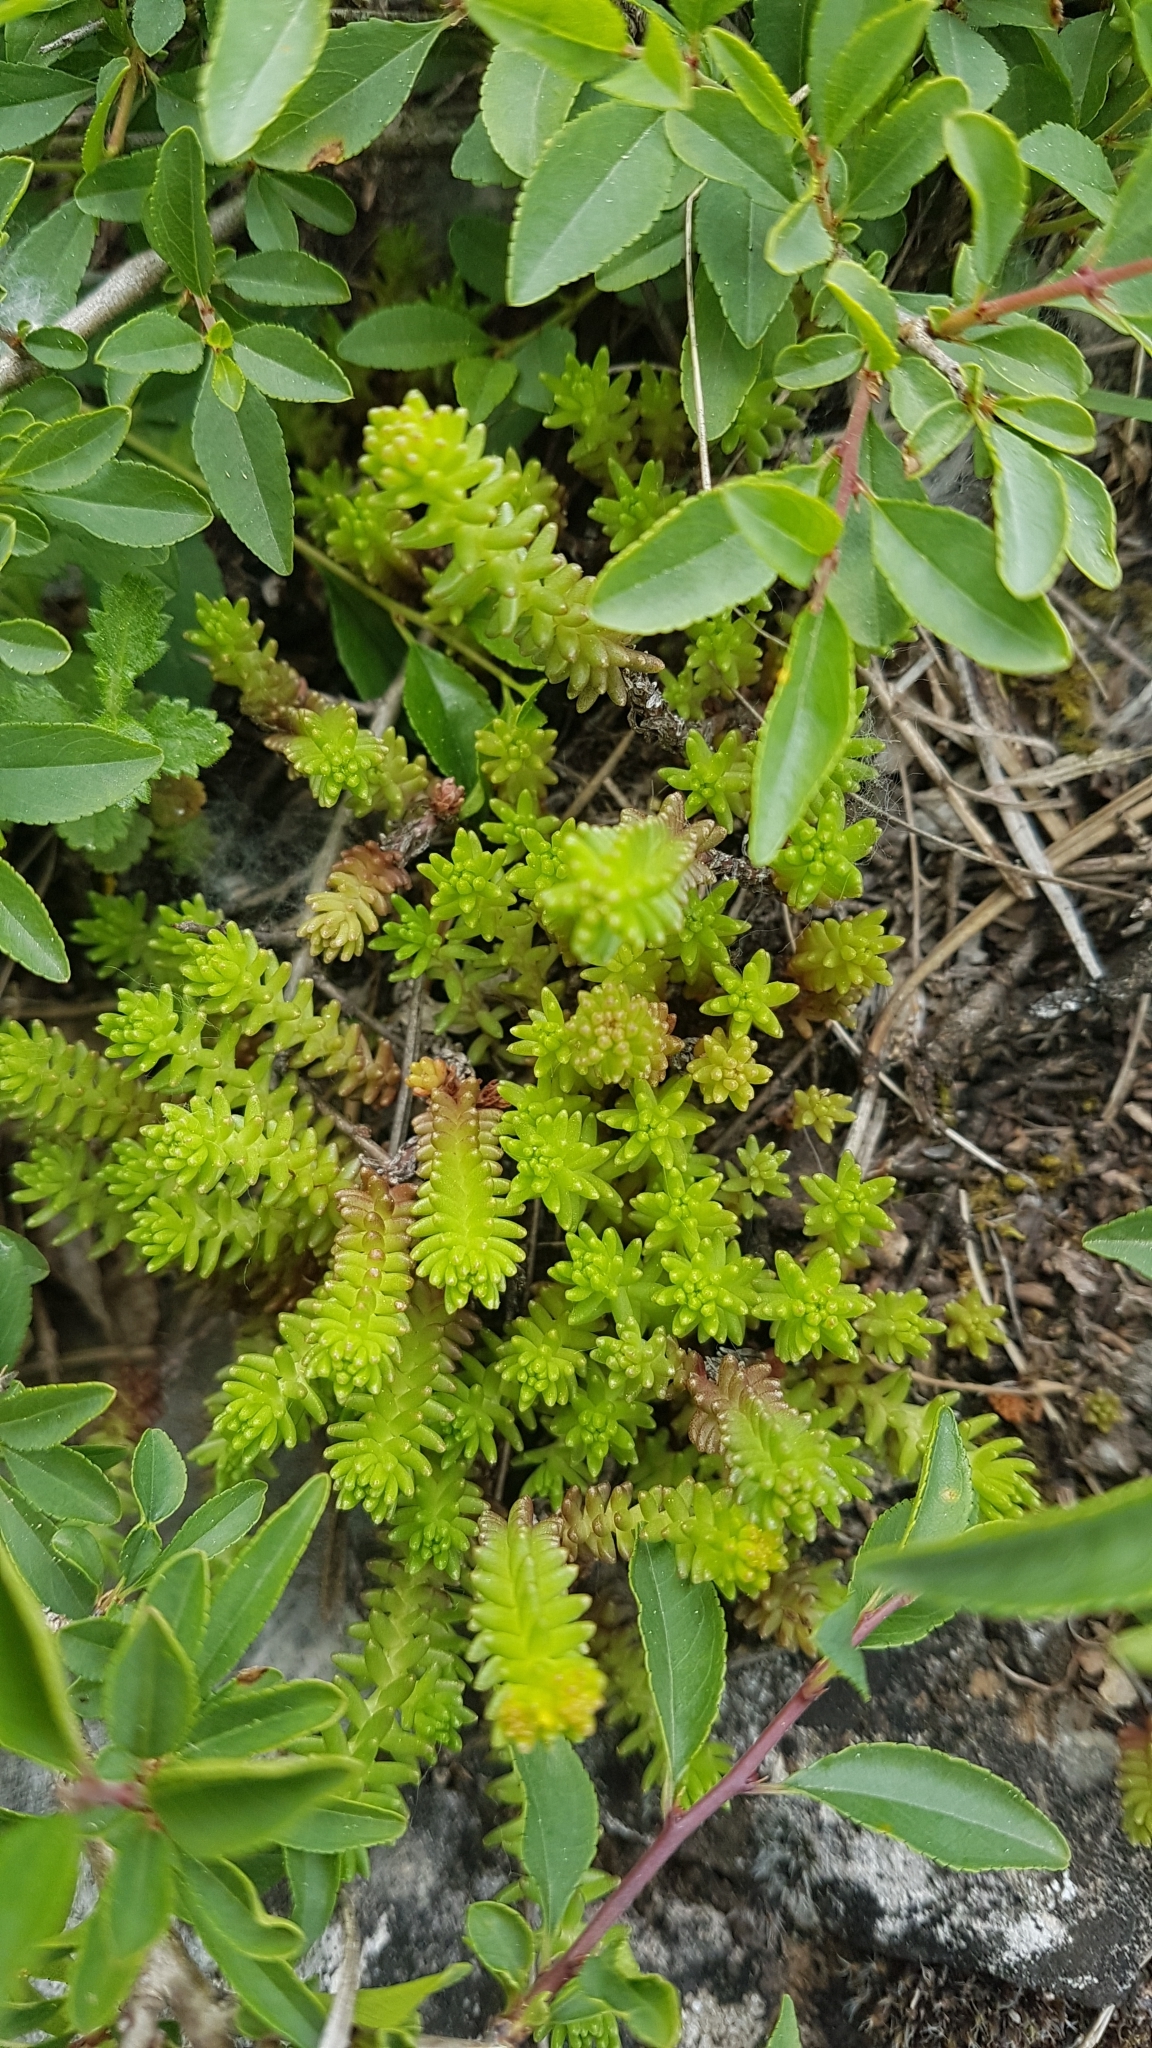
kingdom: Plantae
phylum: Tracheophyta
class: Magnoliopsida
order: Saxifragales
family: Crassulaceae
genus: Sedum
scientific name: Sedum sexangulare
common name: Tasteless stonecrop
